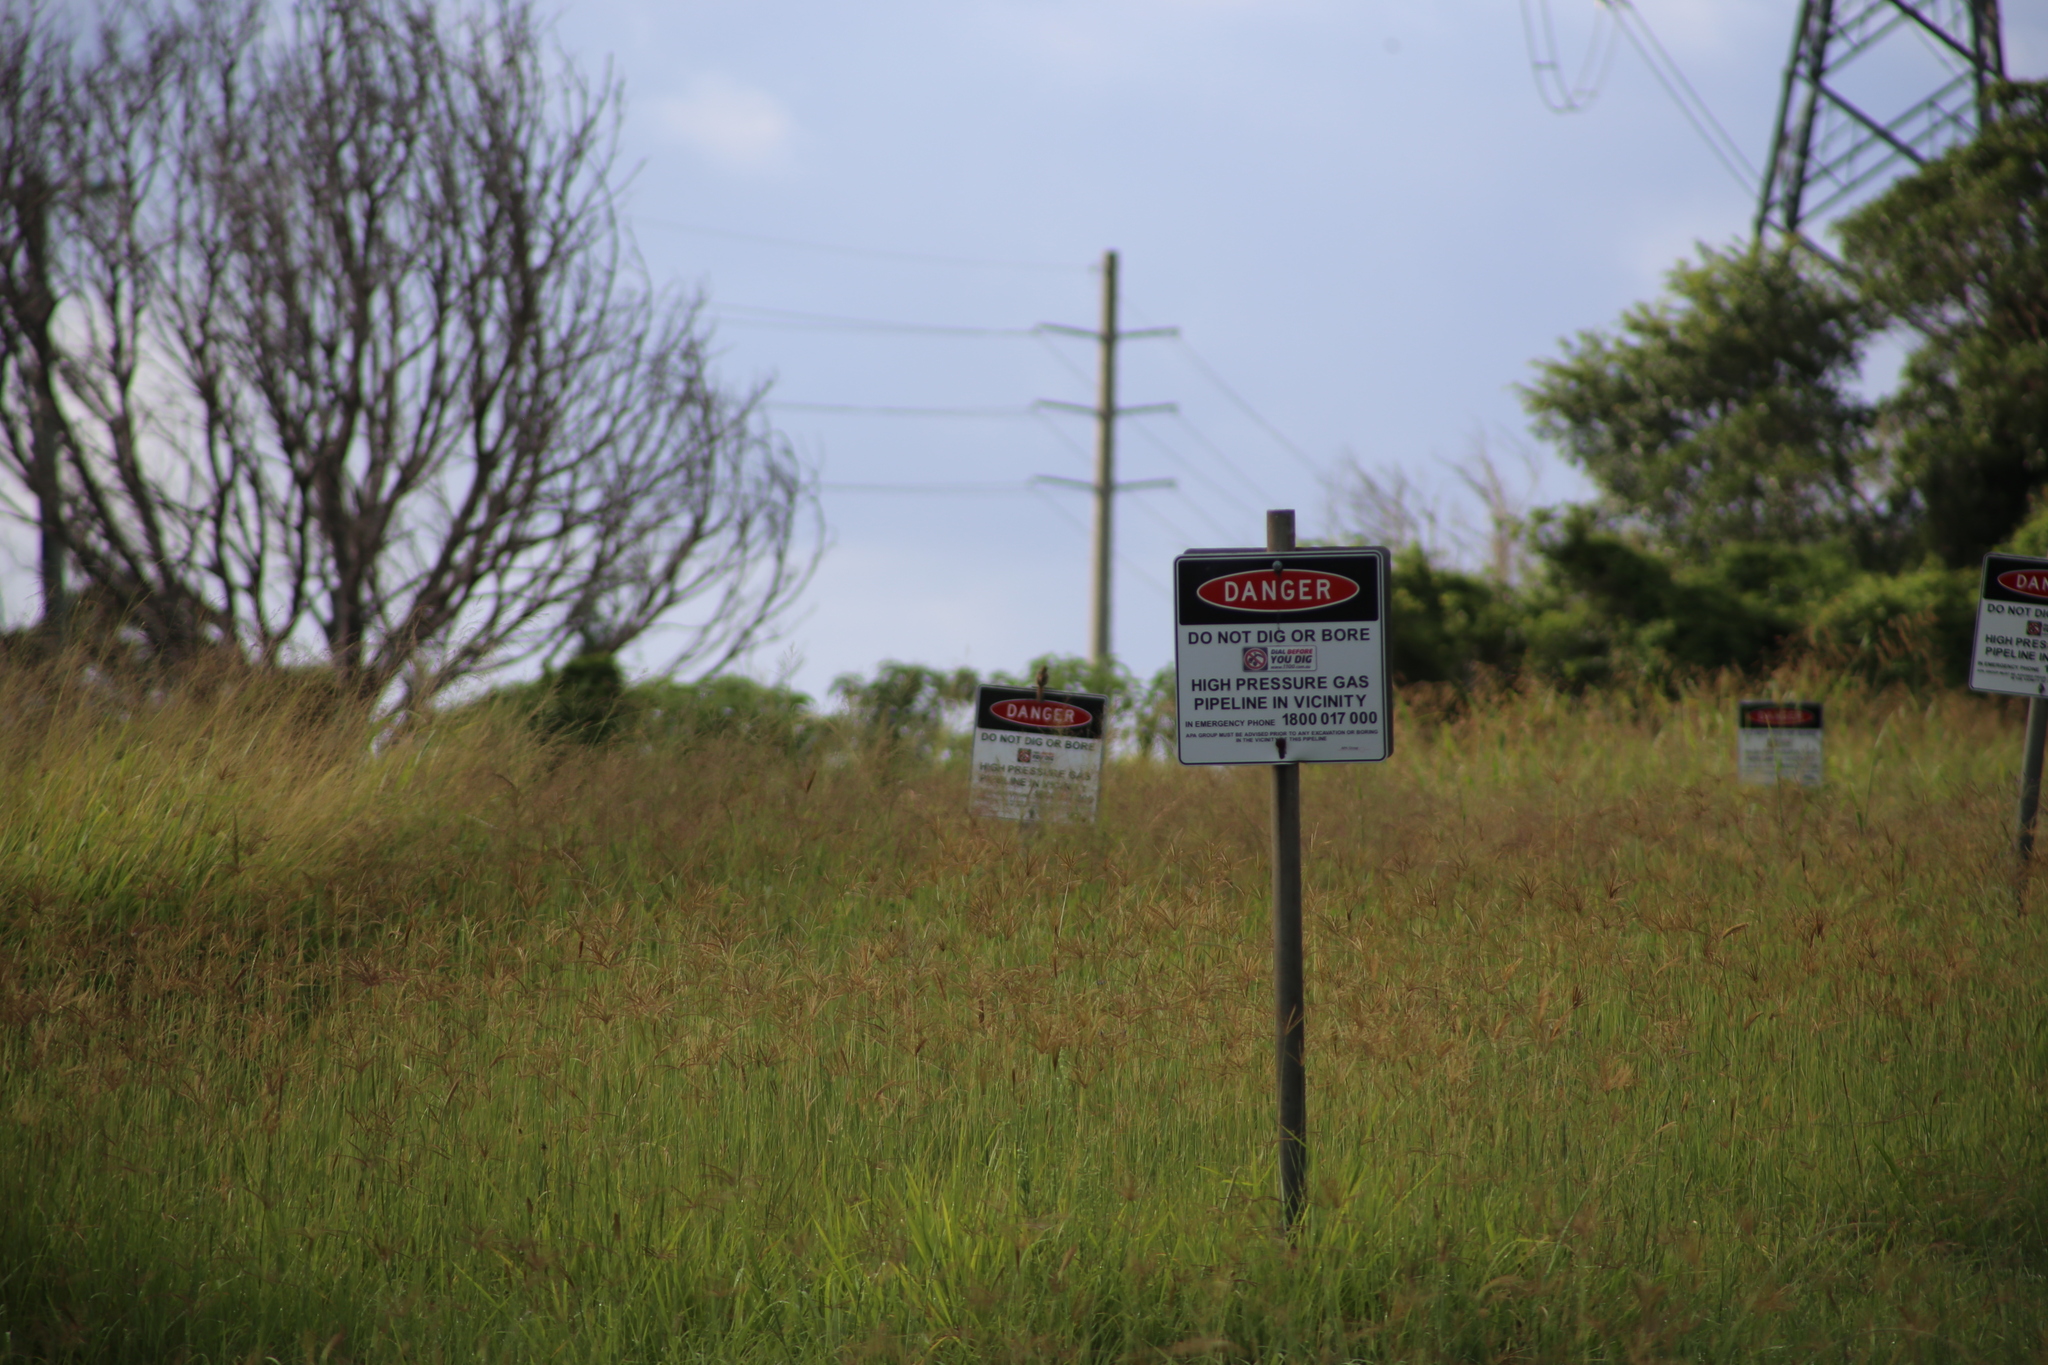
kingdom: Animalia
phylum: Chordata
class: Aves
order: Passeriformes
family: Locustellidae
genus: Megalurus
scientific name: Megalurus timoriensis
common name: Tawny grassbird
